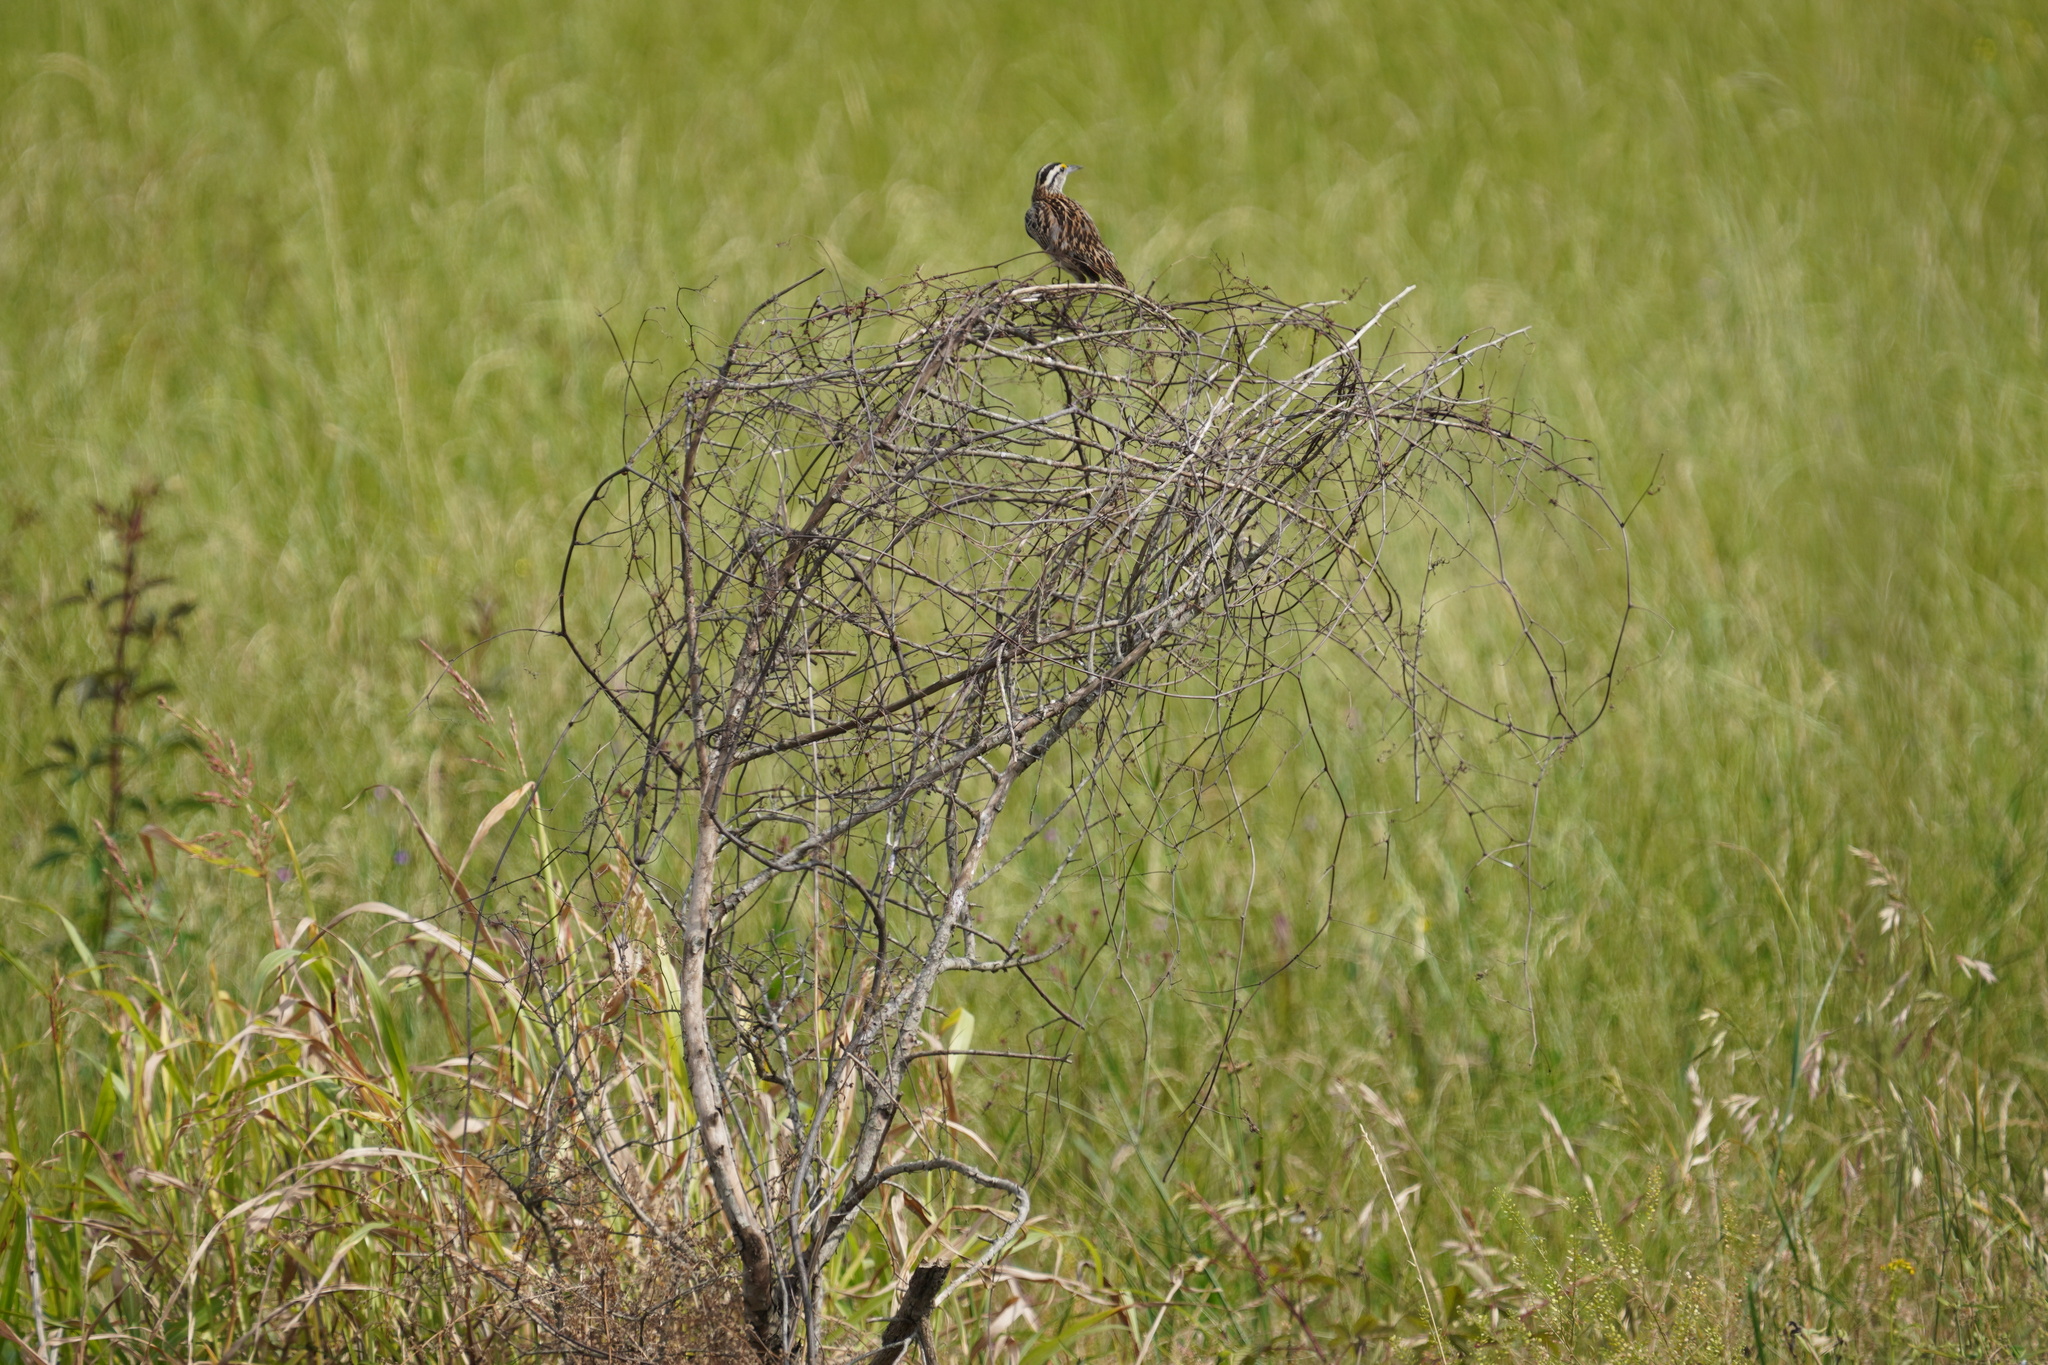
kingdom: Animalia
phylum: Chordata
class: Aves
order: Passeriformes
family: Icteridae
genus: Sturnella
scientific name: Sturnella magna
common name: Eastern meadowlark
